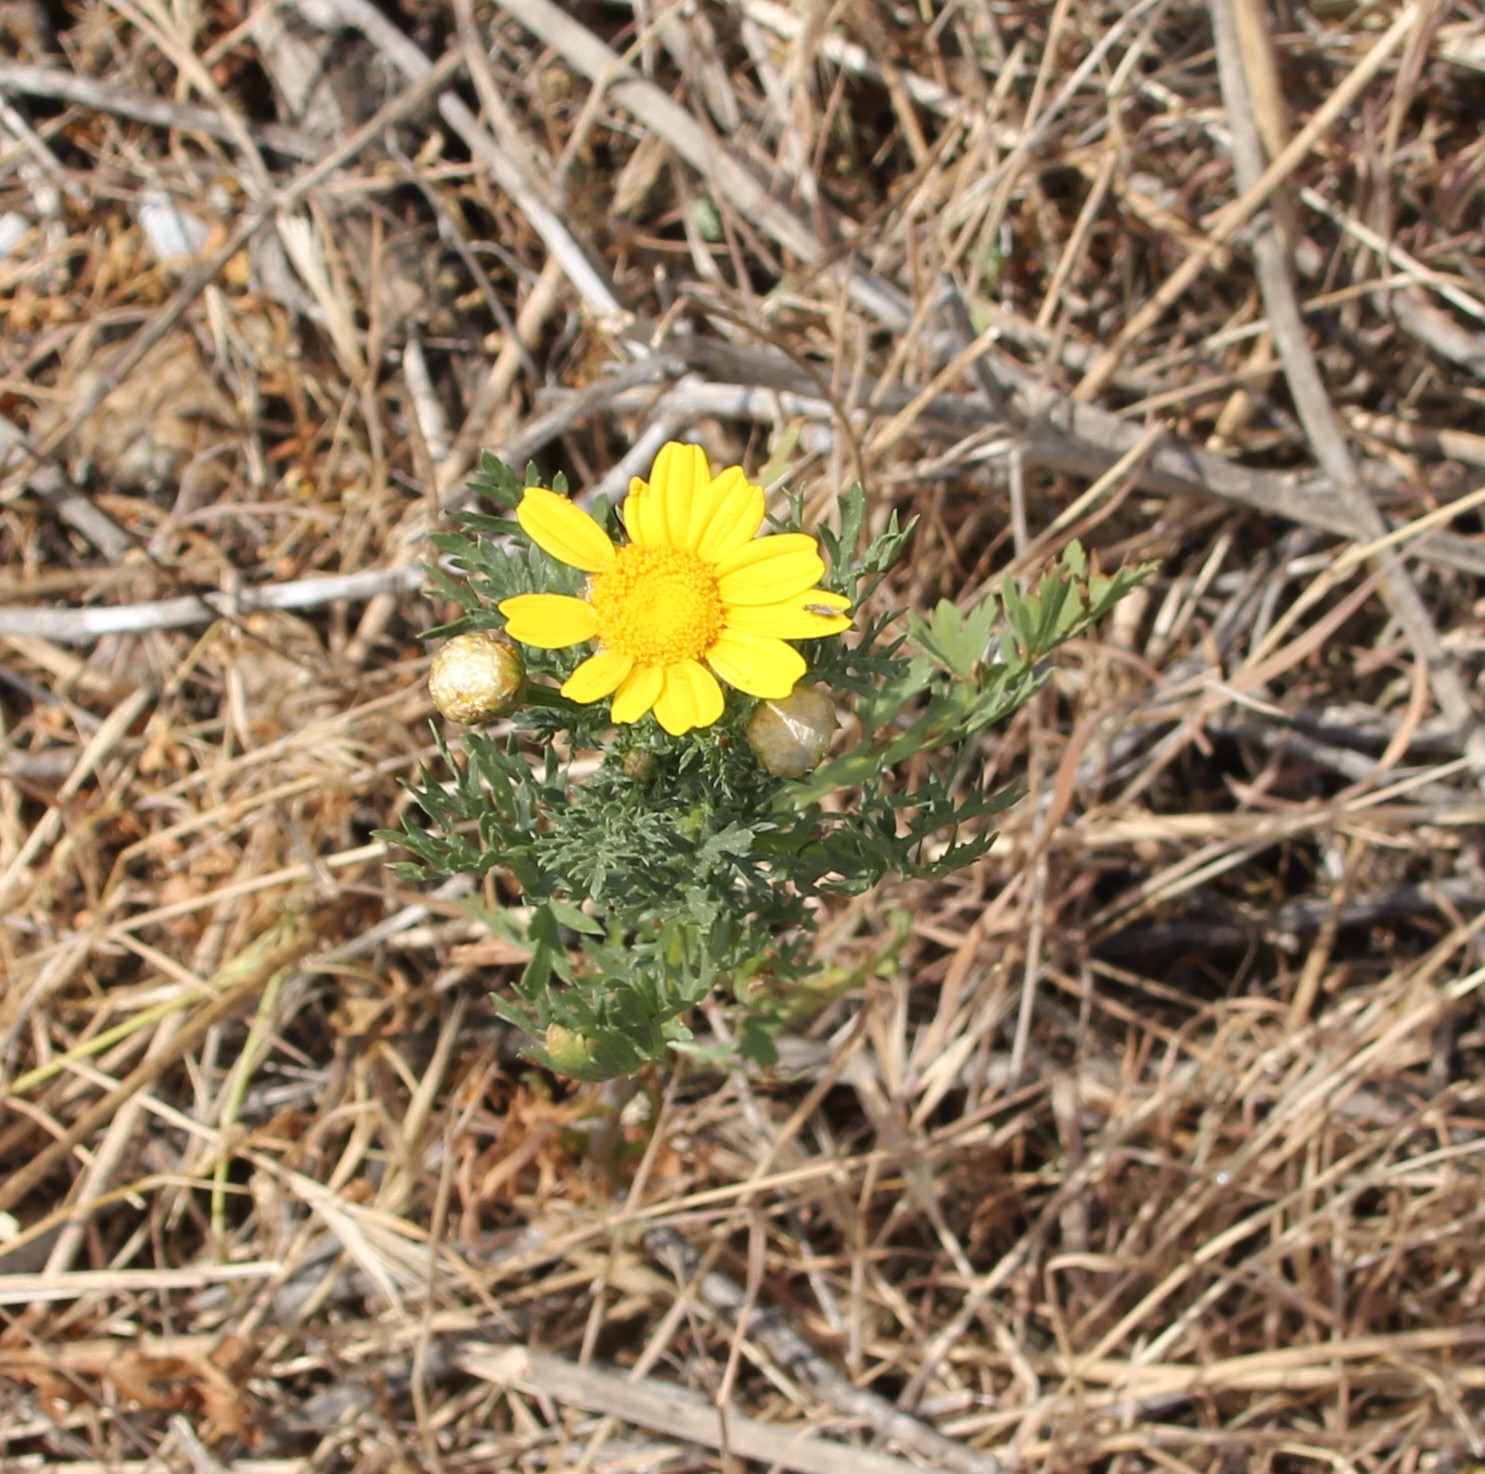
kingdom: Plantae
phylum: Tracheophyta
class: Magnoliopsida
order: Asterales
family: Asteraceae
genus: Glebionis
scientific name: Glebionis coronaria
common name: Crowndaisy
